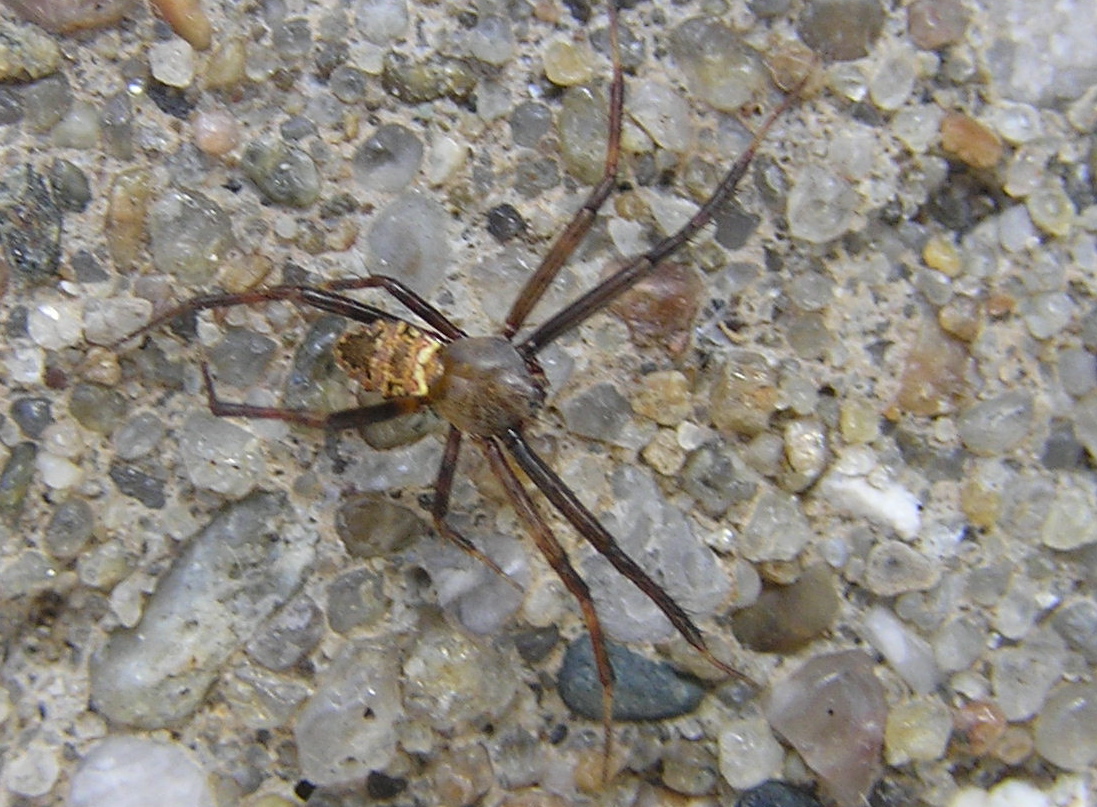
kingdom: Animalia
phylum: Arthropoda
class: Arachnida
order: Araneae
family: Araneidae
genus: Gea
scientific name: Gea heptagon
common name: Orb weavers
